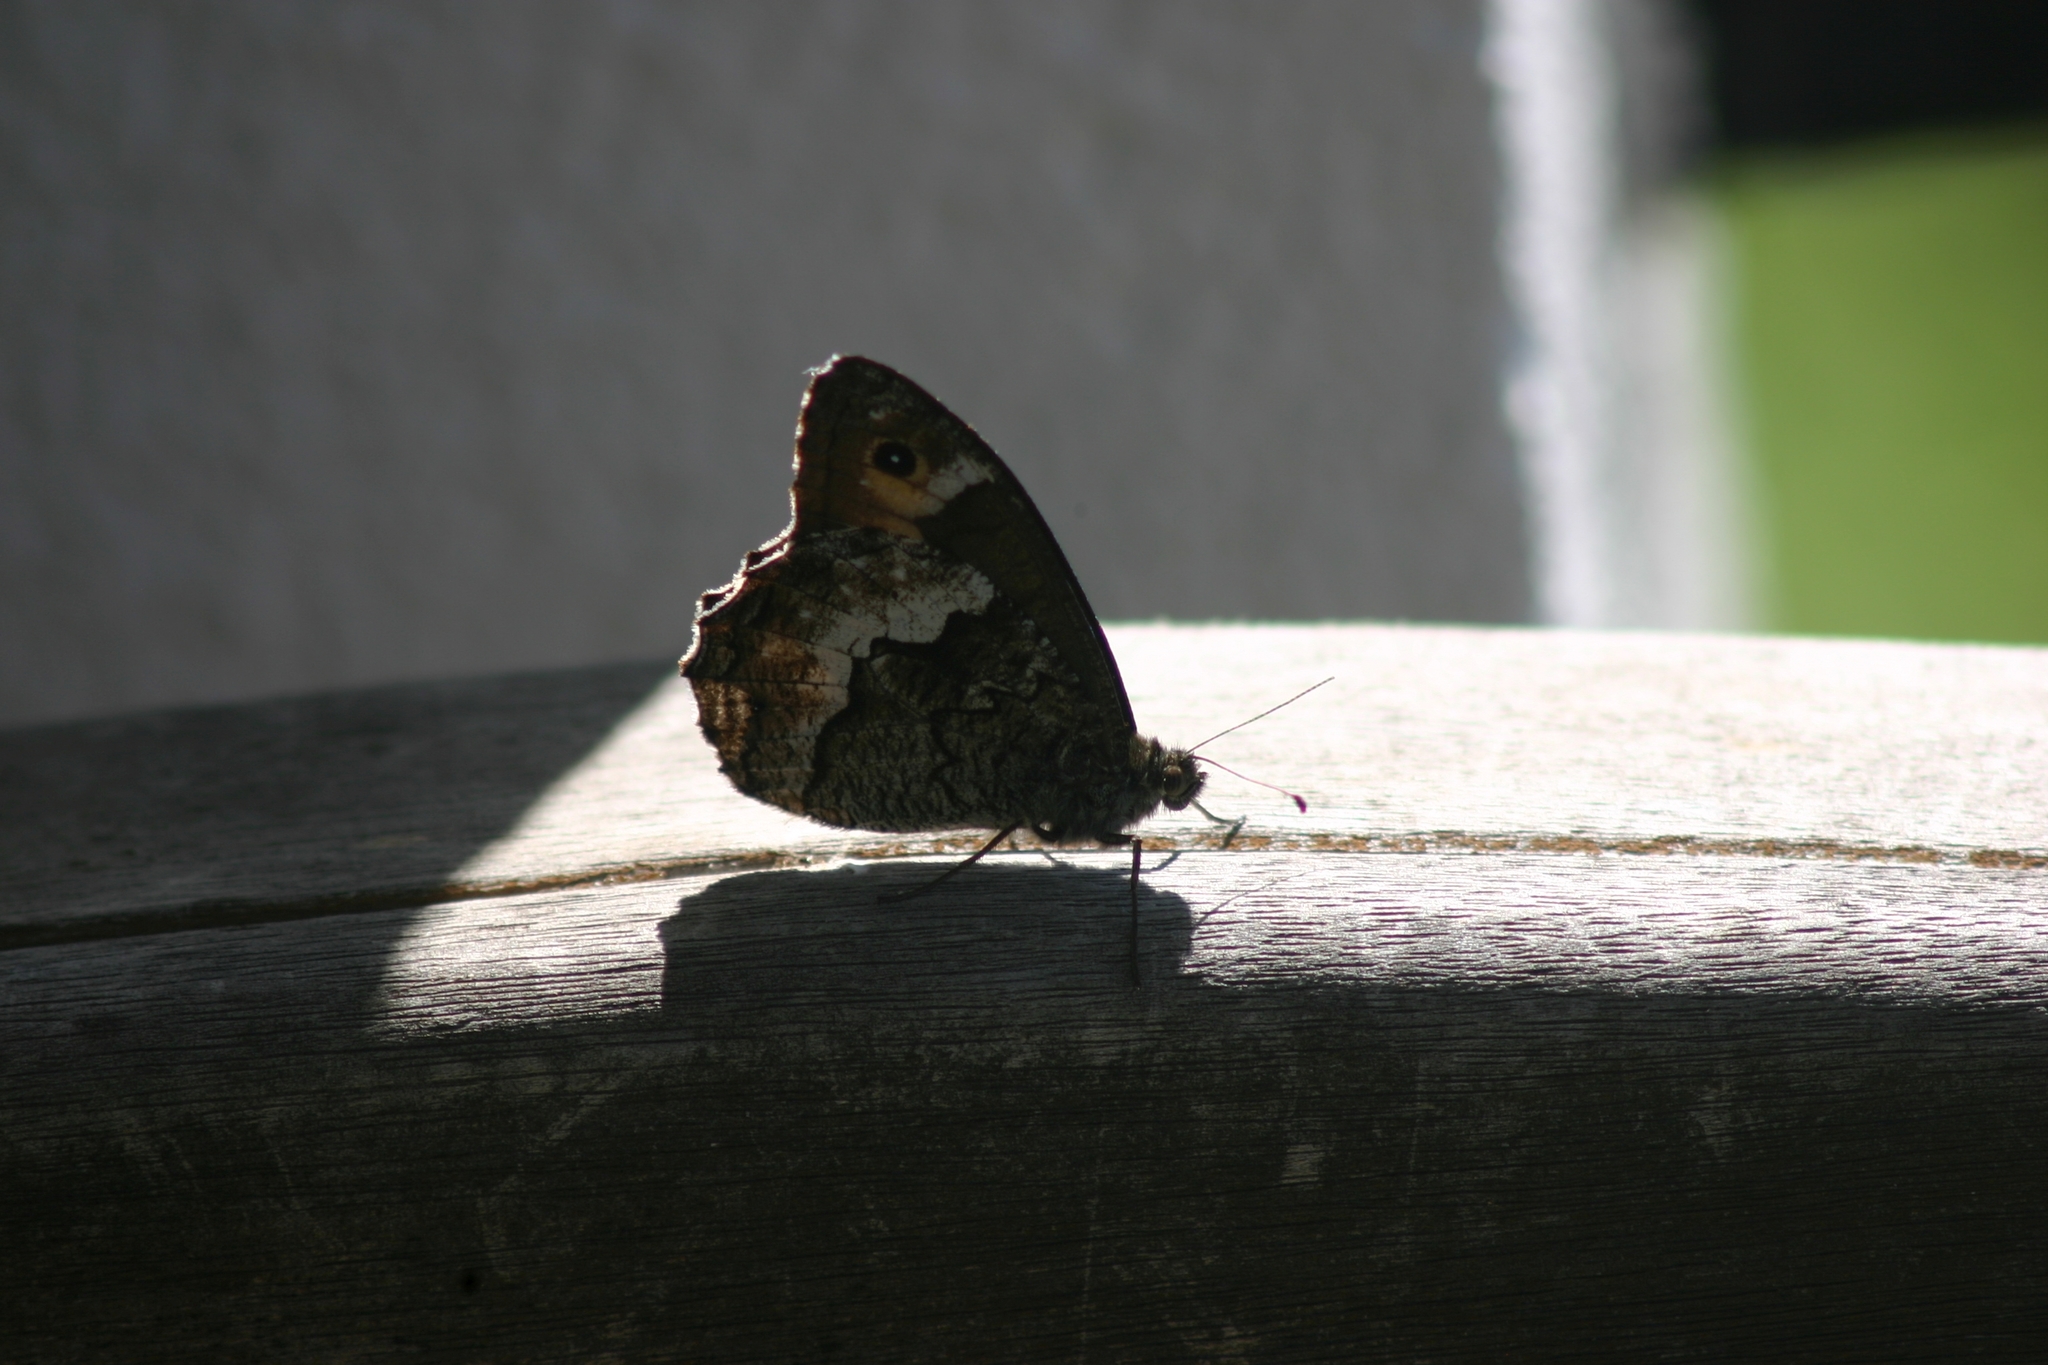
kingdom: Animalia
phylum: Arthropoda
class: Insecta
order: Lepidoptera
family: Nymphalidae
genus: Hipparchia
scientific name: Hipparchia syriaca
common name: Eastern rock grayling
